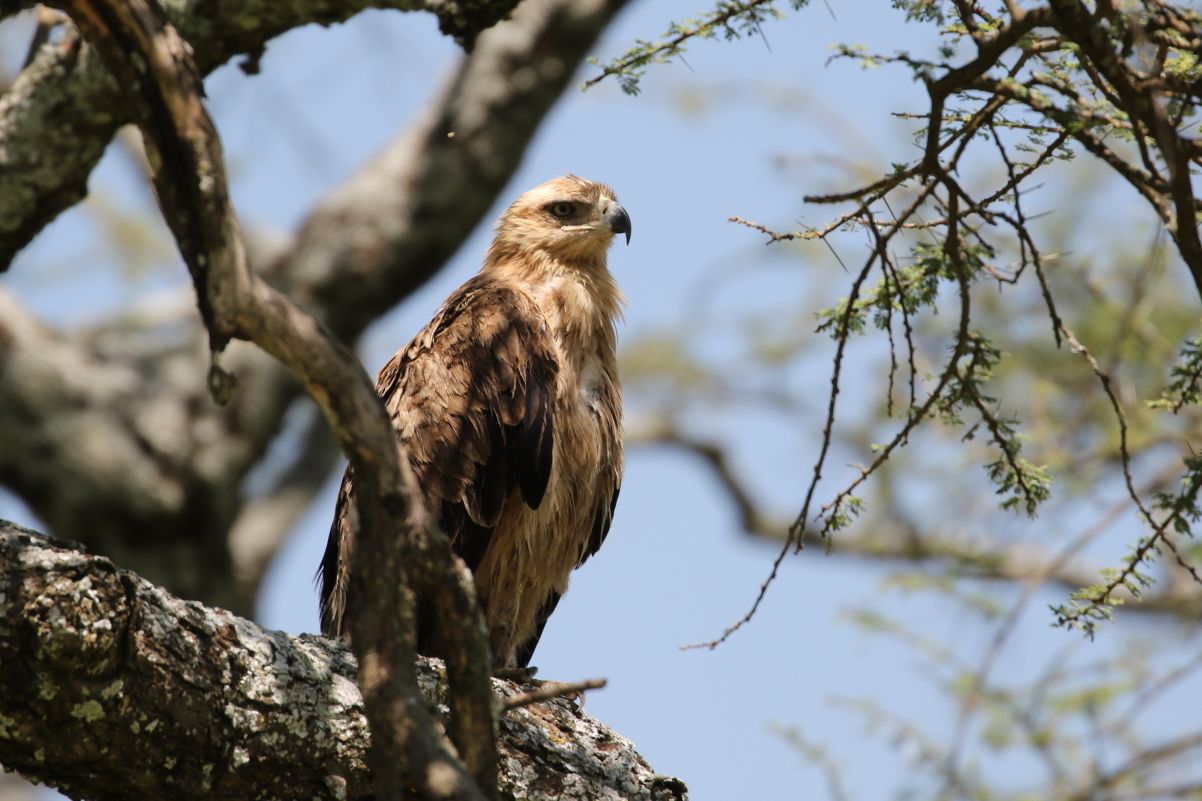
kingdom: Animalia
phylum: Chordata
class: Aves
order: Accipitriformes
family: Accipitridae
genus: Aquila
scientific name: Aquila rapax
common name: Tawny eagle
